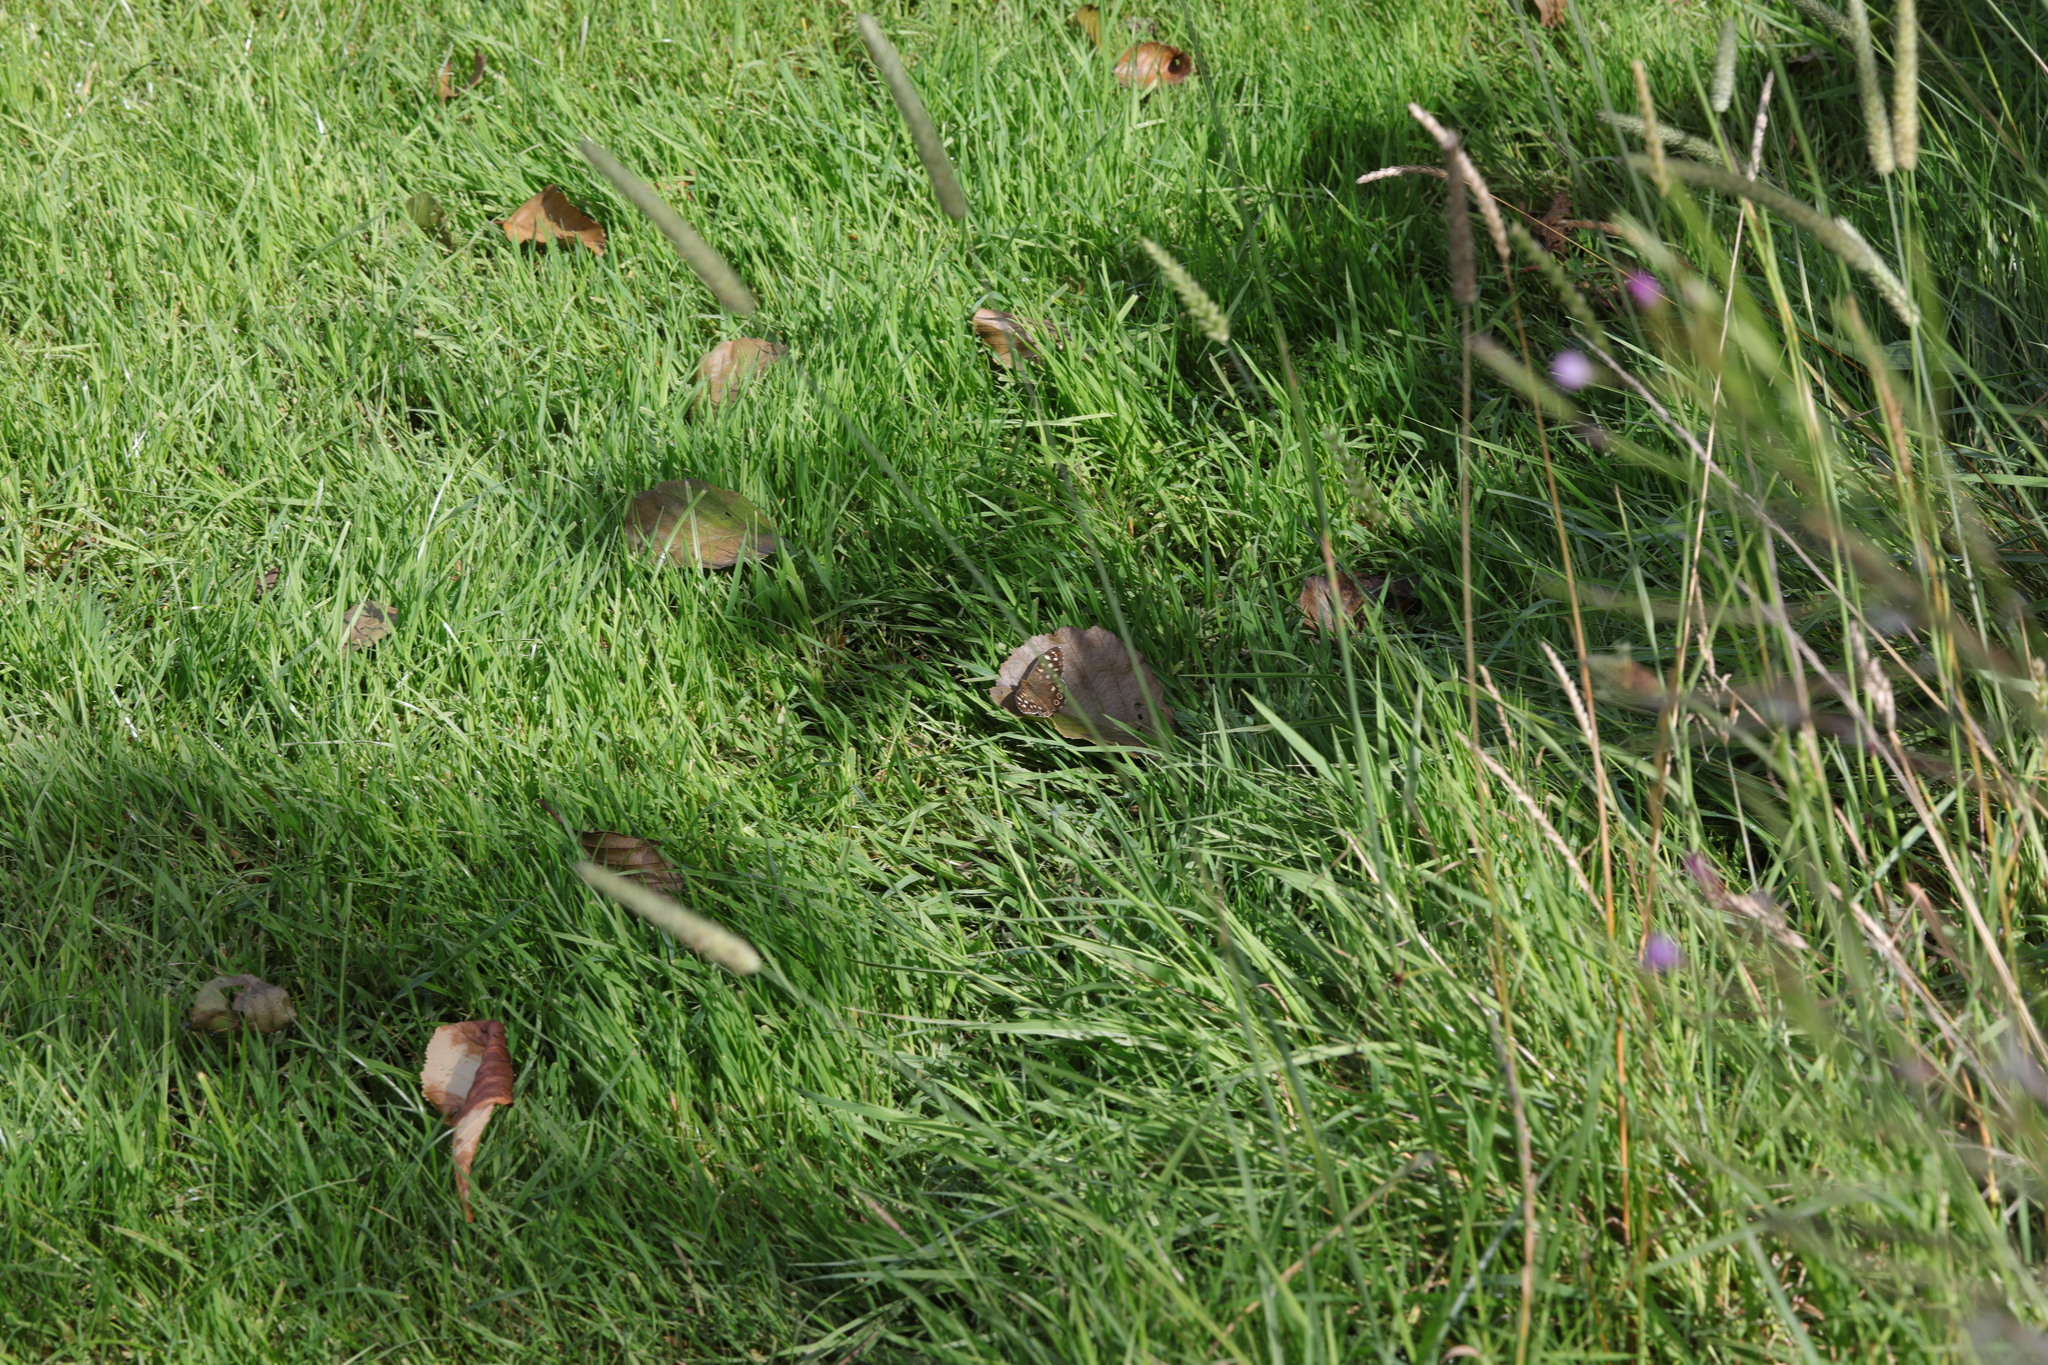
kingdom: Animalia
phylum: Arthropoda
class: Insecta
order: Lepidoptera
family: Nymphalidae
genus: Pararge
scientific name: Pararge aegeria
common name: Speckled wood
